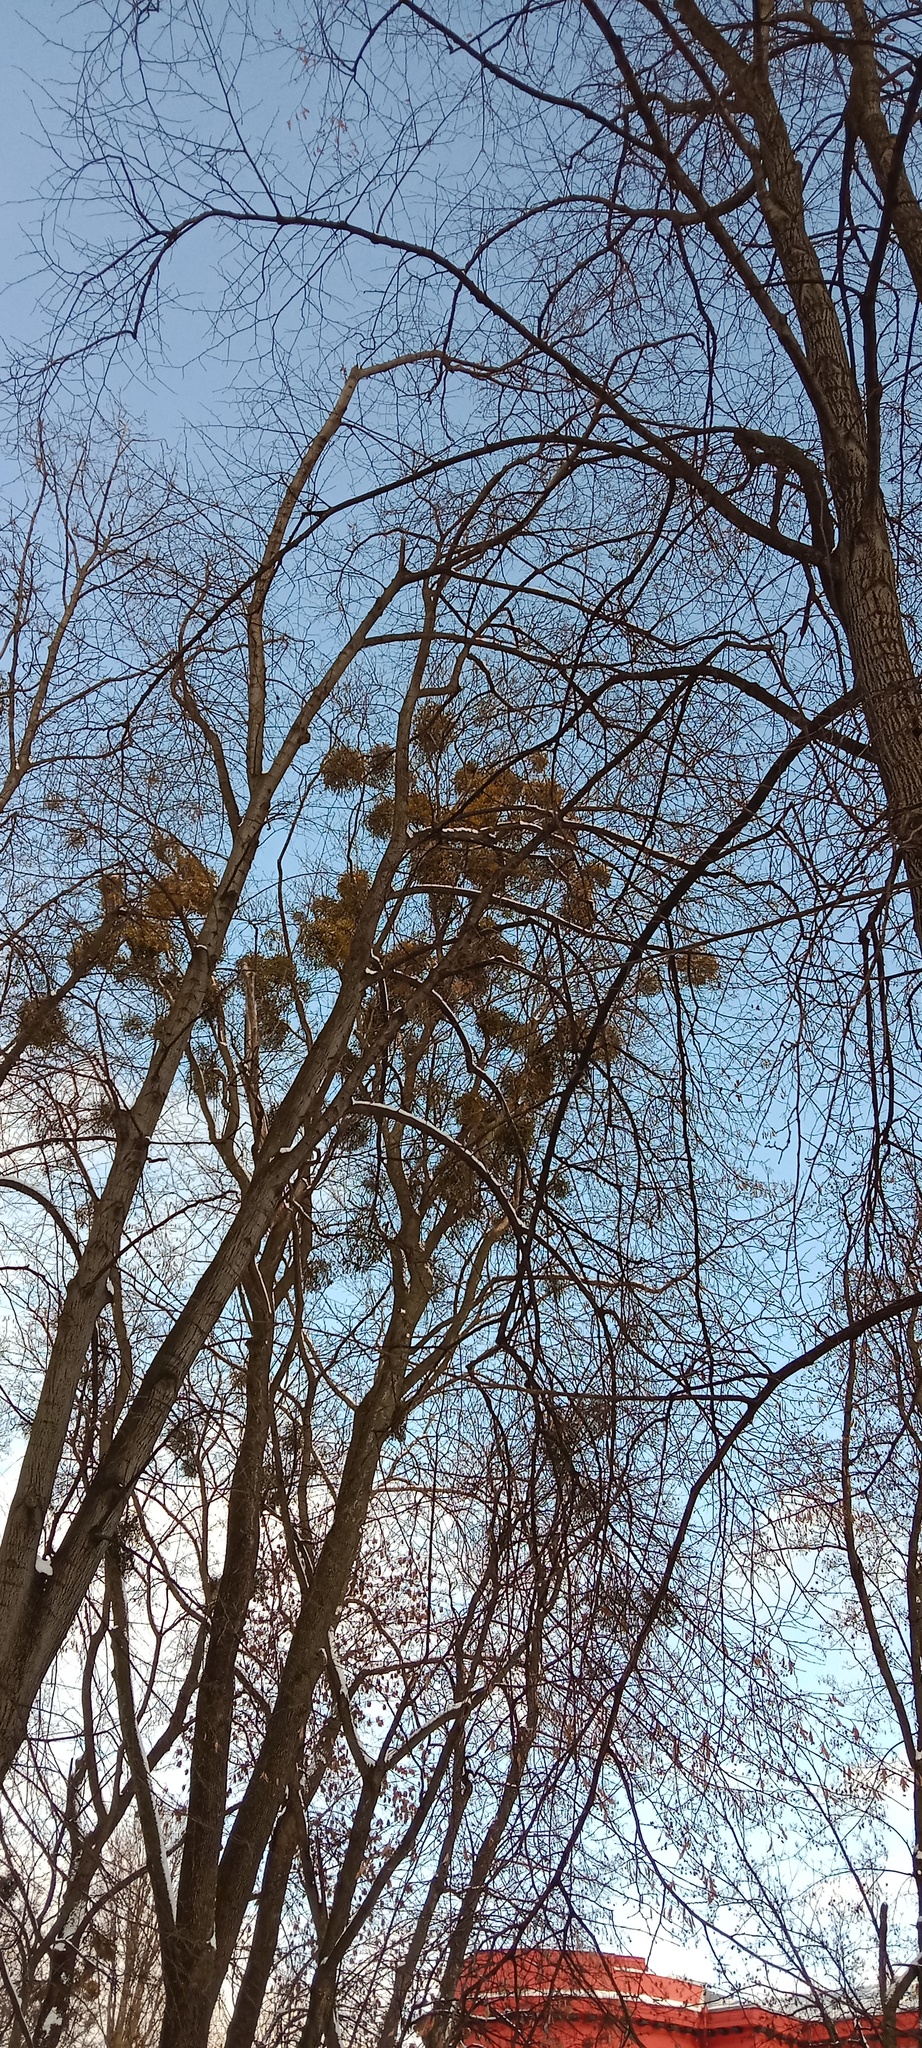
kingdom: Plantae
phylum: Tracheophyta
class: Magnoliopsida
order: Santalales
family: Viscaceae
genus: Viscum
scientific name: Viscum album
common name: Mistletoe
